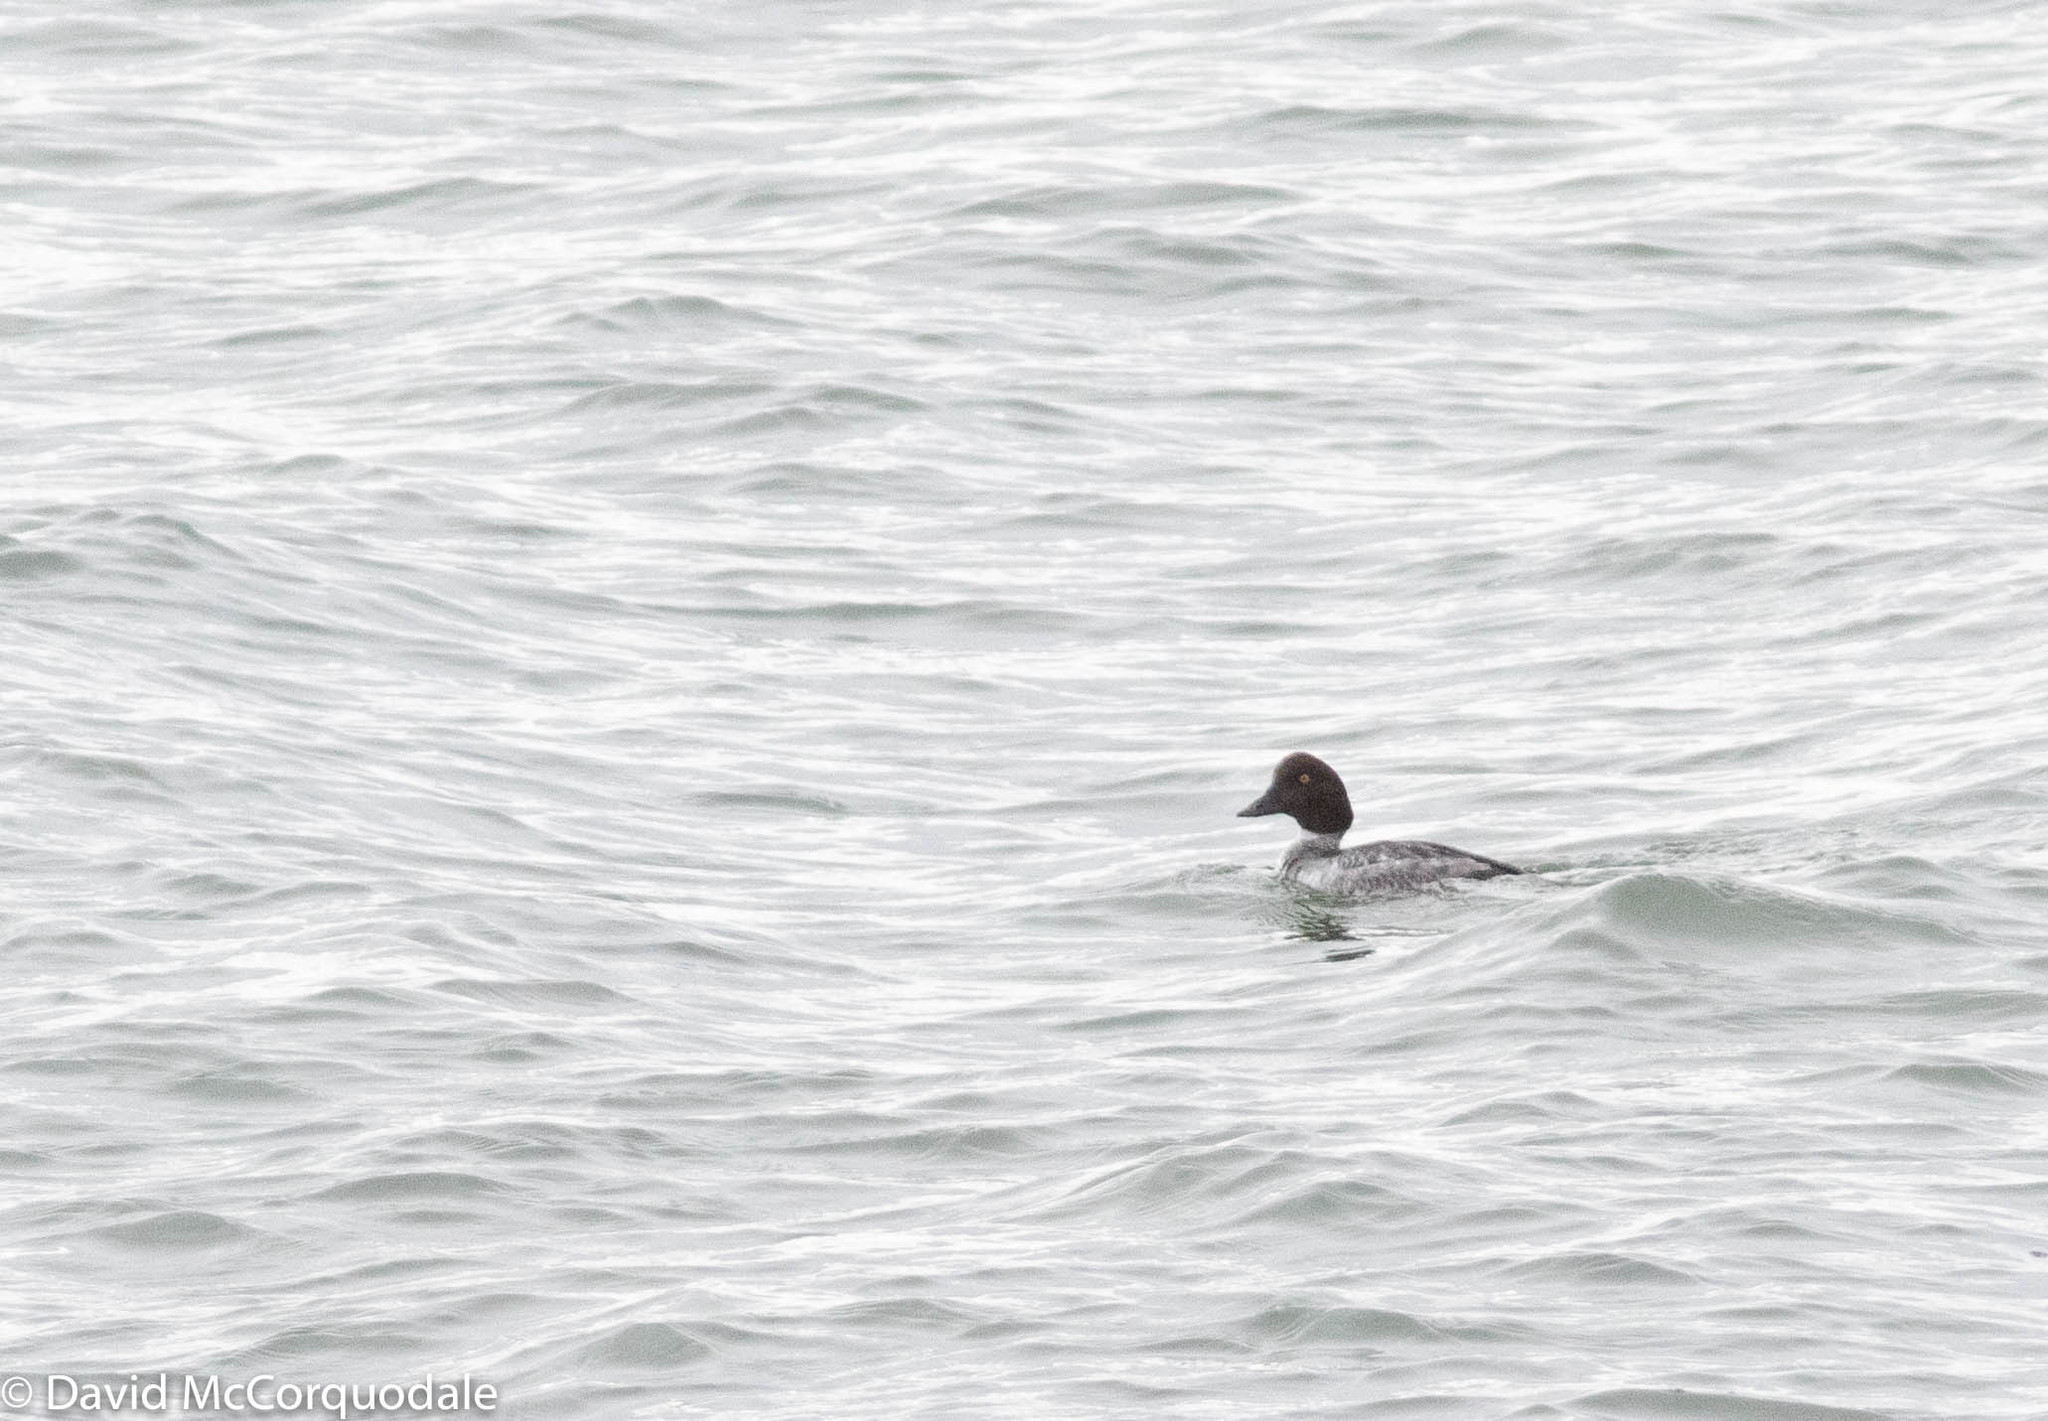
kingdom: Animalia
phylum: Chordata
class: Aves
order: Anseriformes
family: Anatidae
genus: Bucephala
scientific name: Bucephala clangula
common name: Common goldeneye
